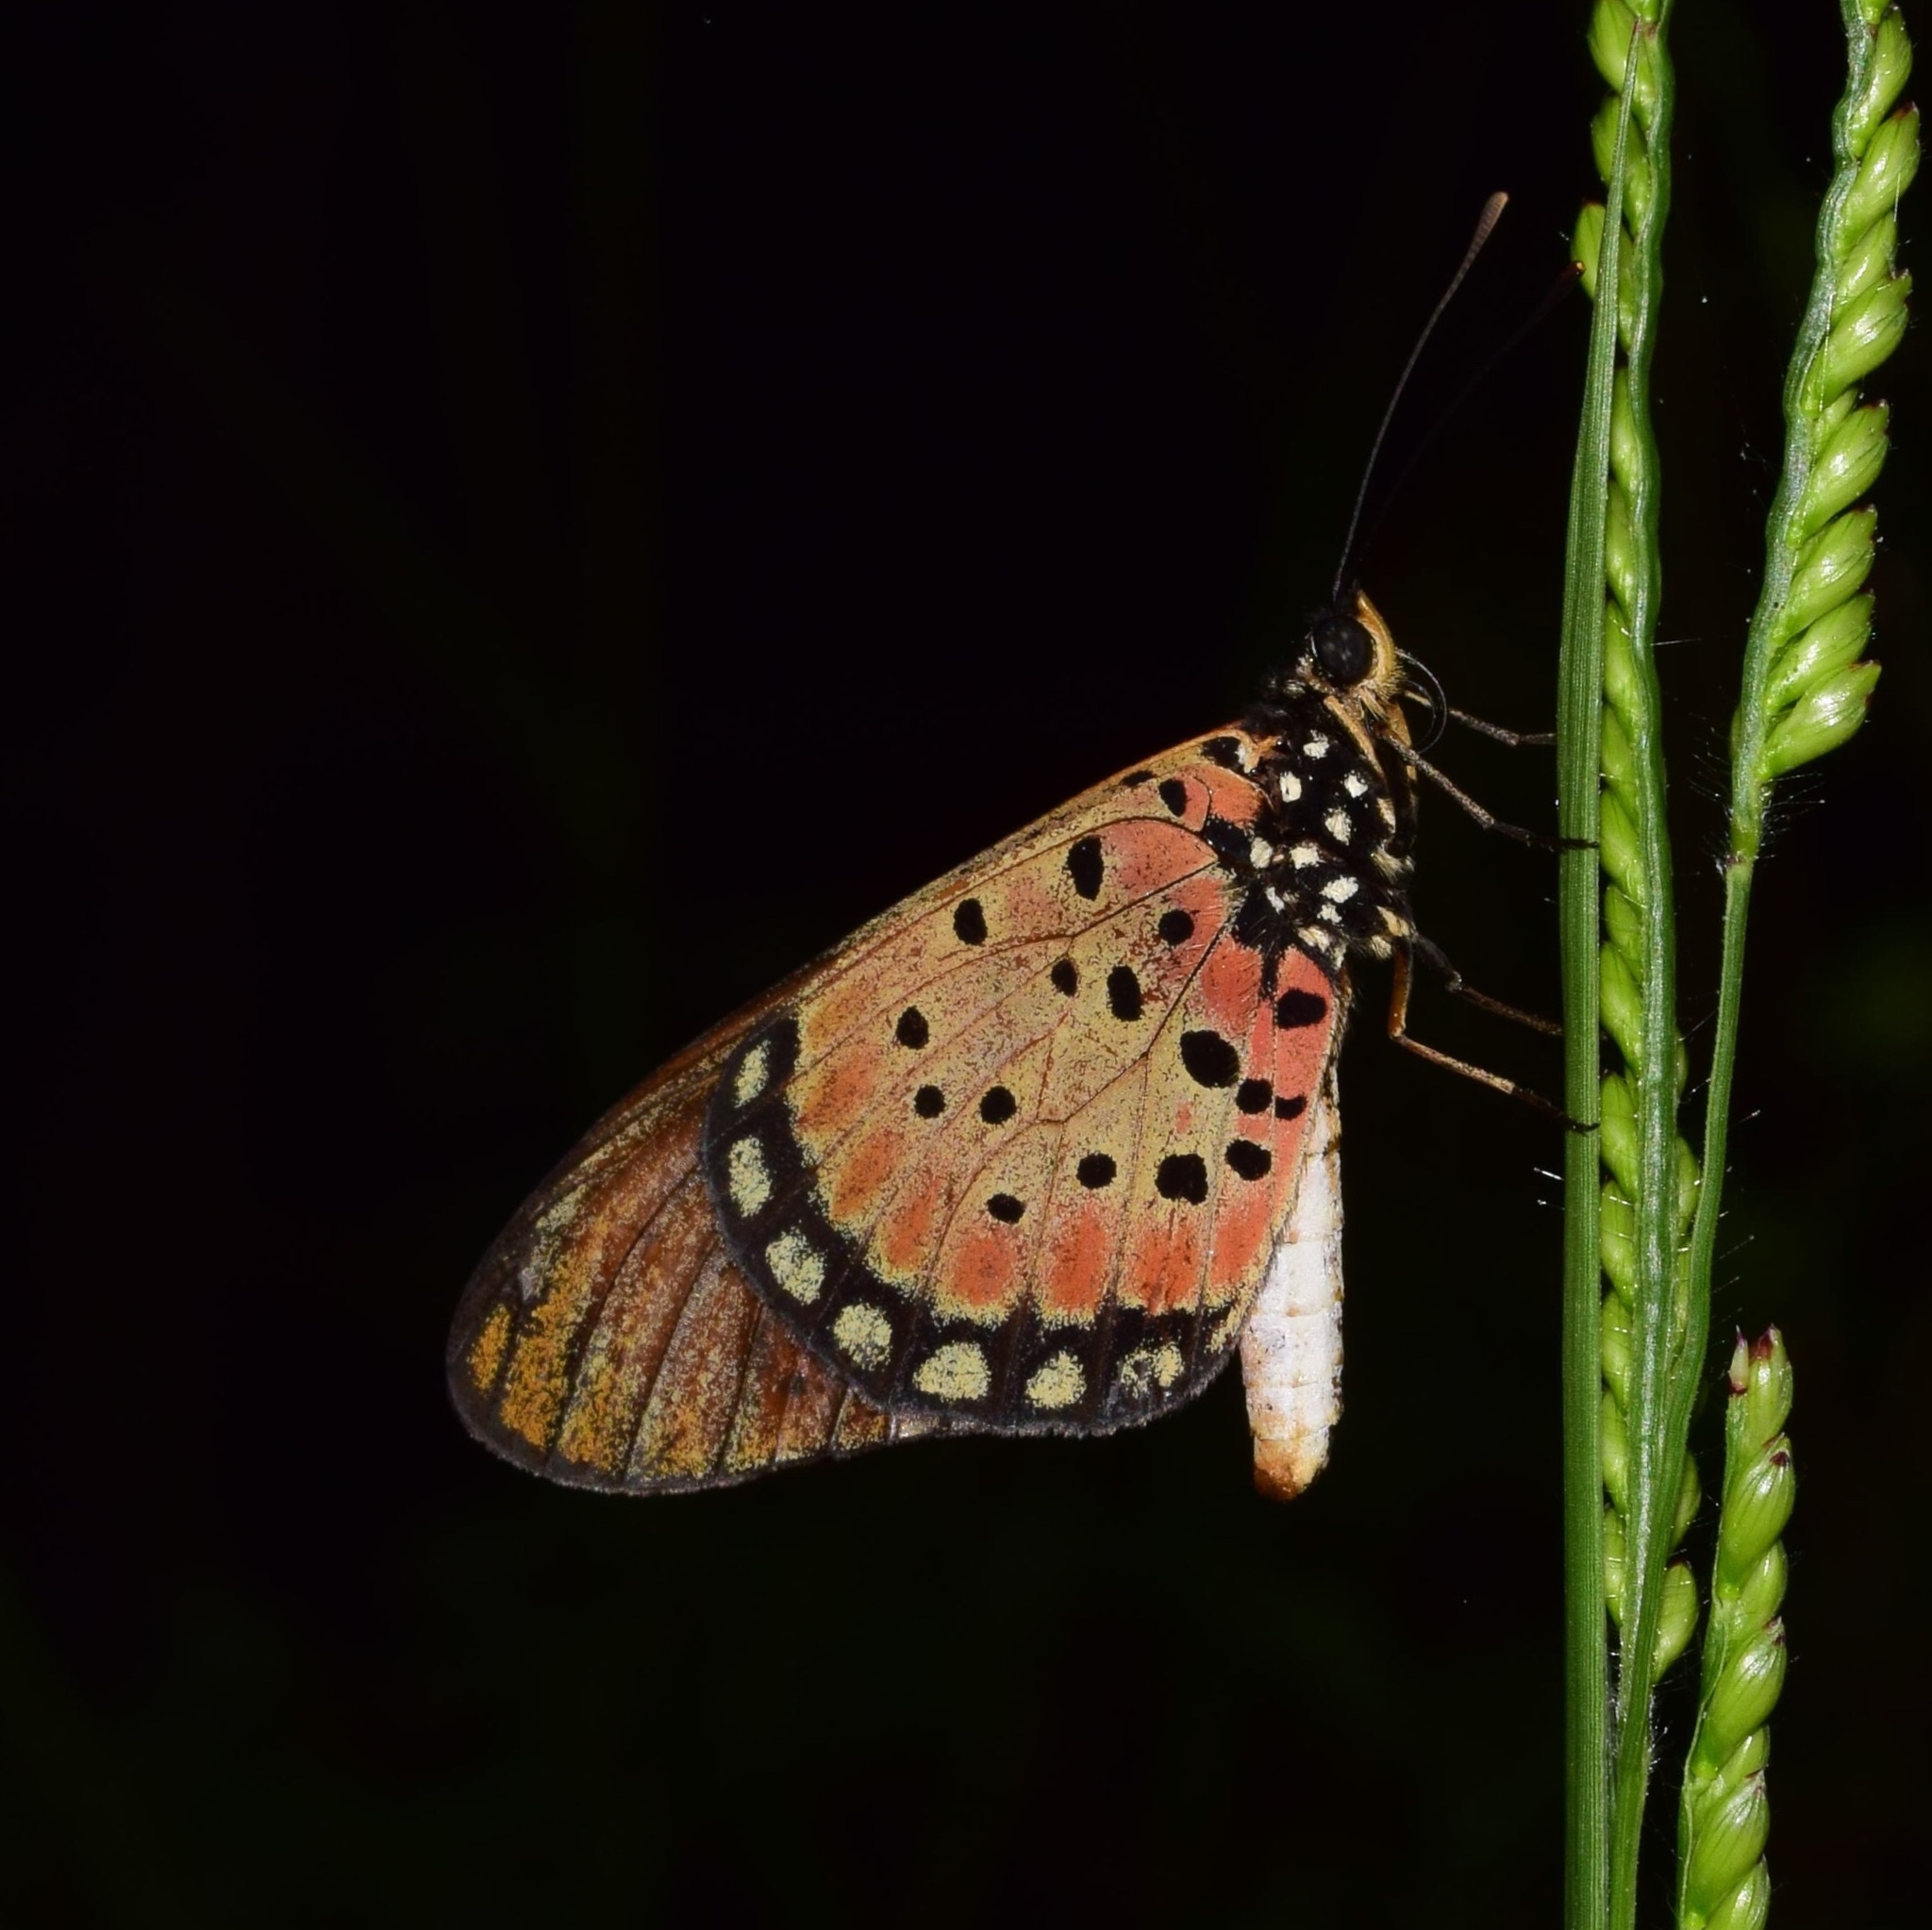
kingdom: Animalia
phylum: Arthropoda
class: Insecta
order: Lepidoptera
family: Nymphalidae
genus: Stephenia
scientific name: Stephenia
